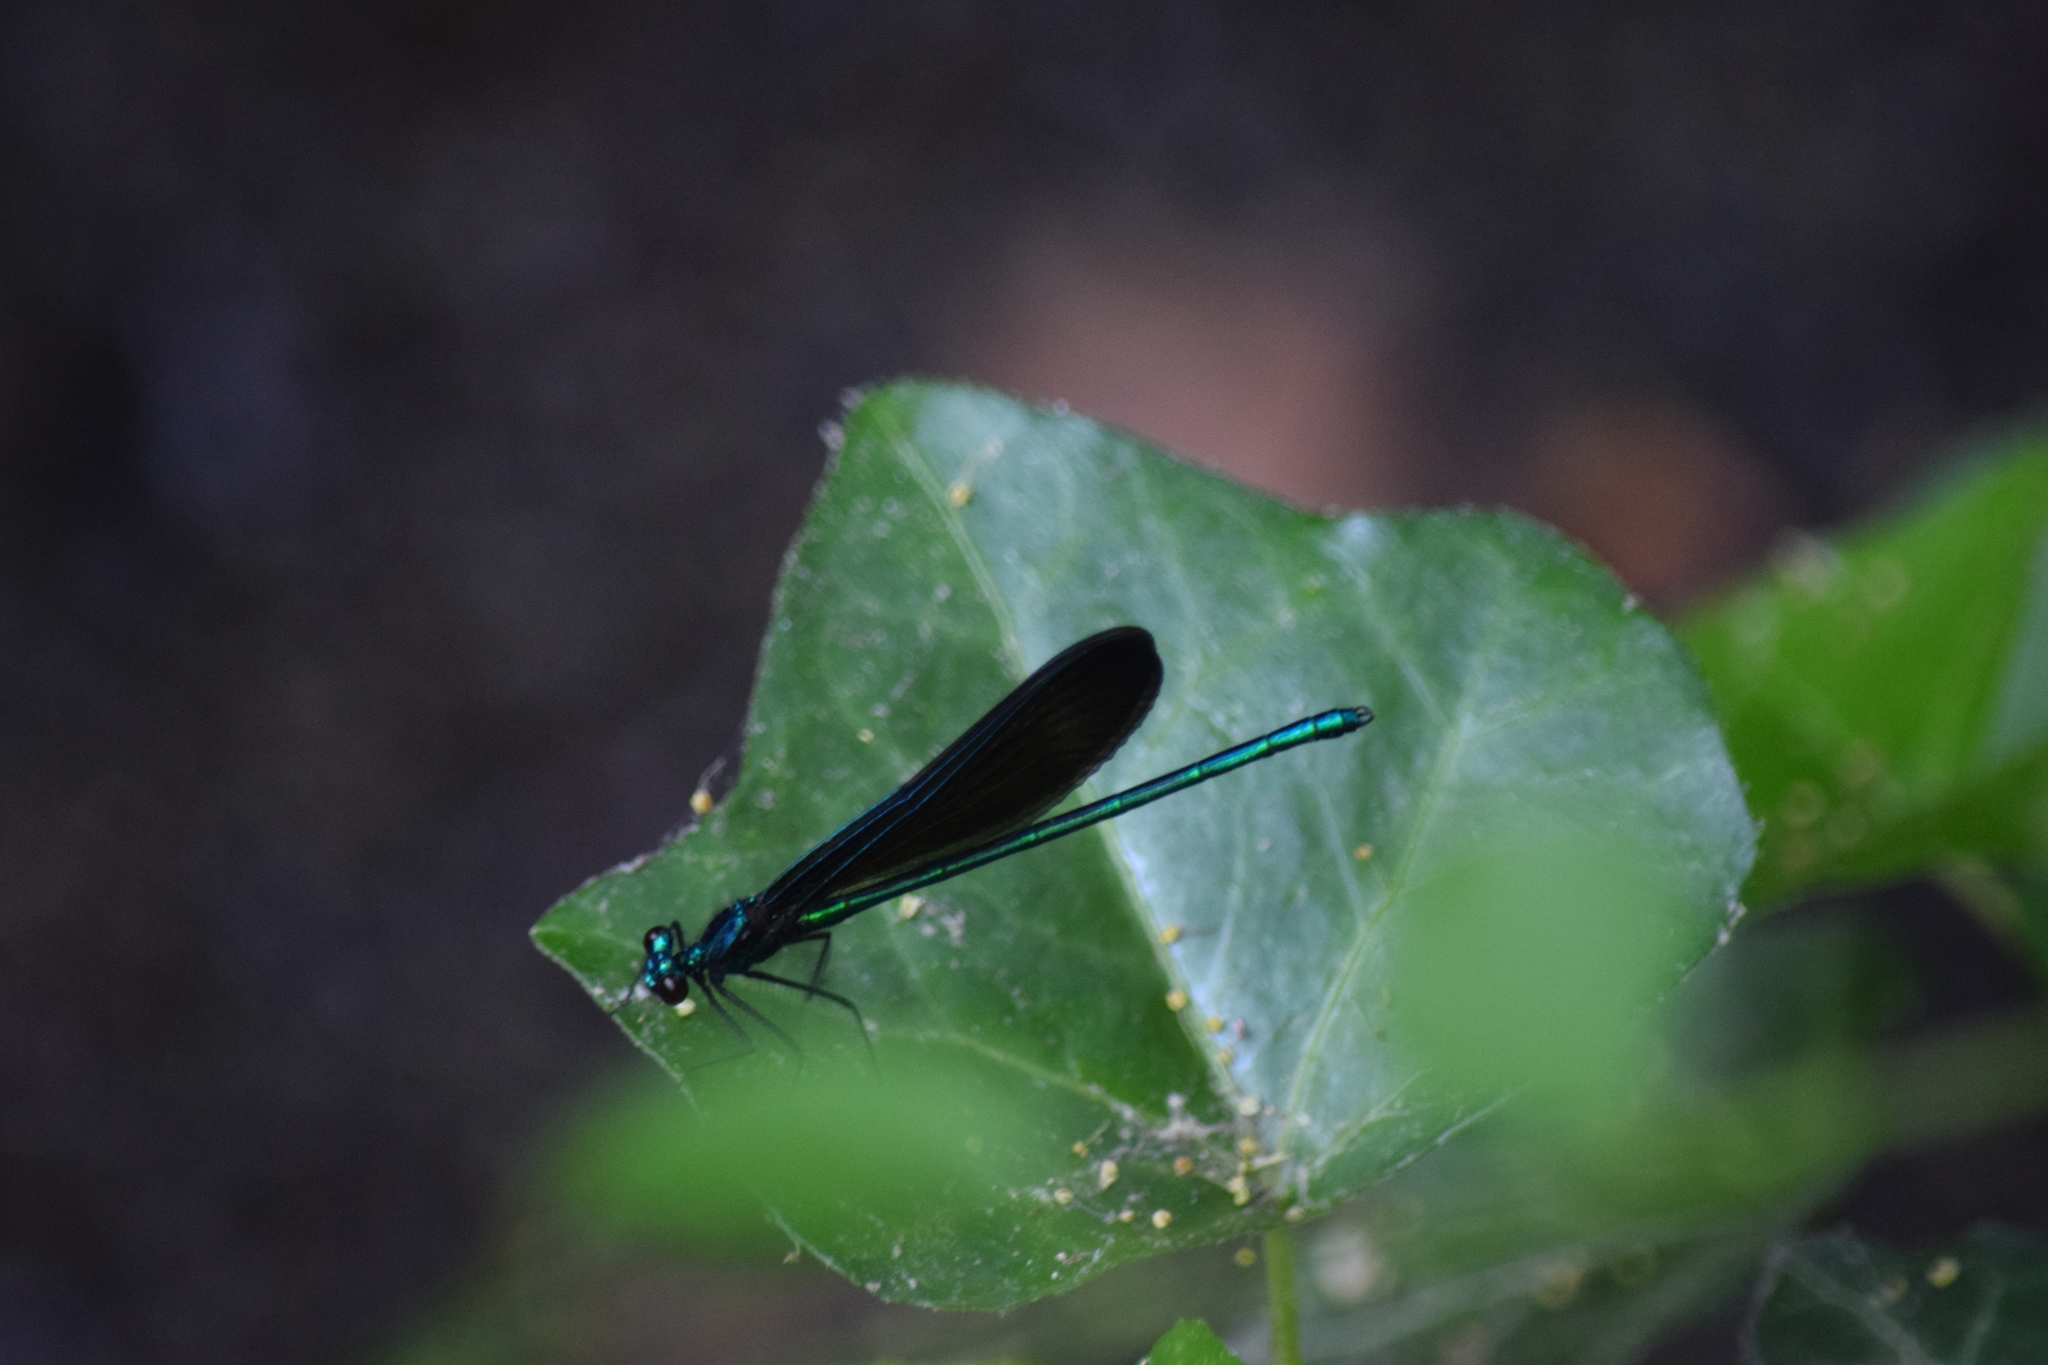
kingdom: Animalia
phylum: Arthropoda
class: Insecta
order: Odonata
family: Calopterygidae
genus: Calopteryx
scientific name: Calopteryx maculata
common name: Ebony jewelwing
